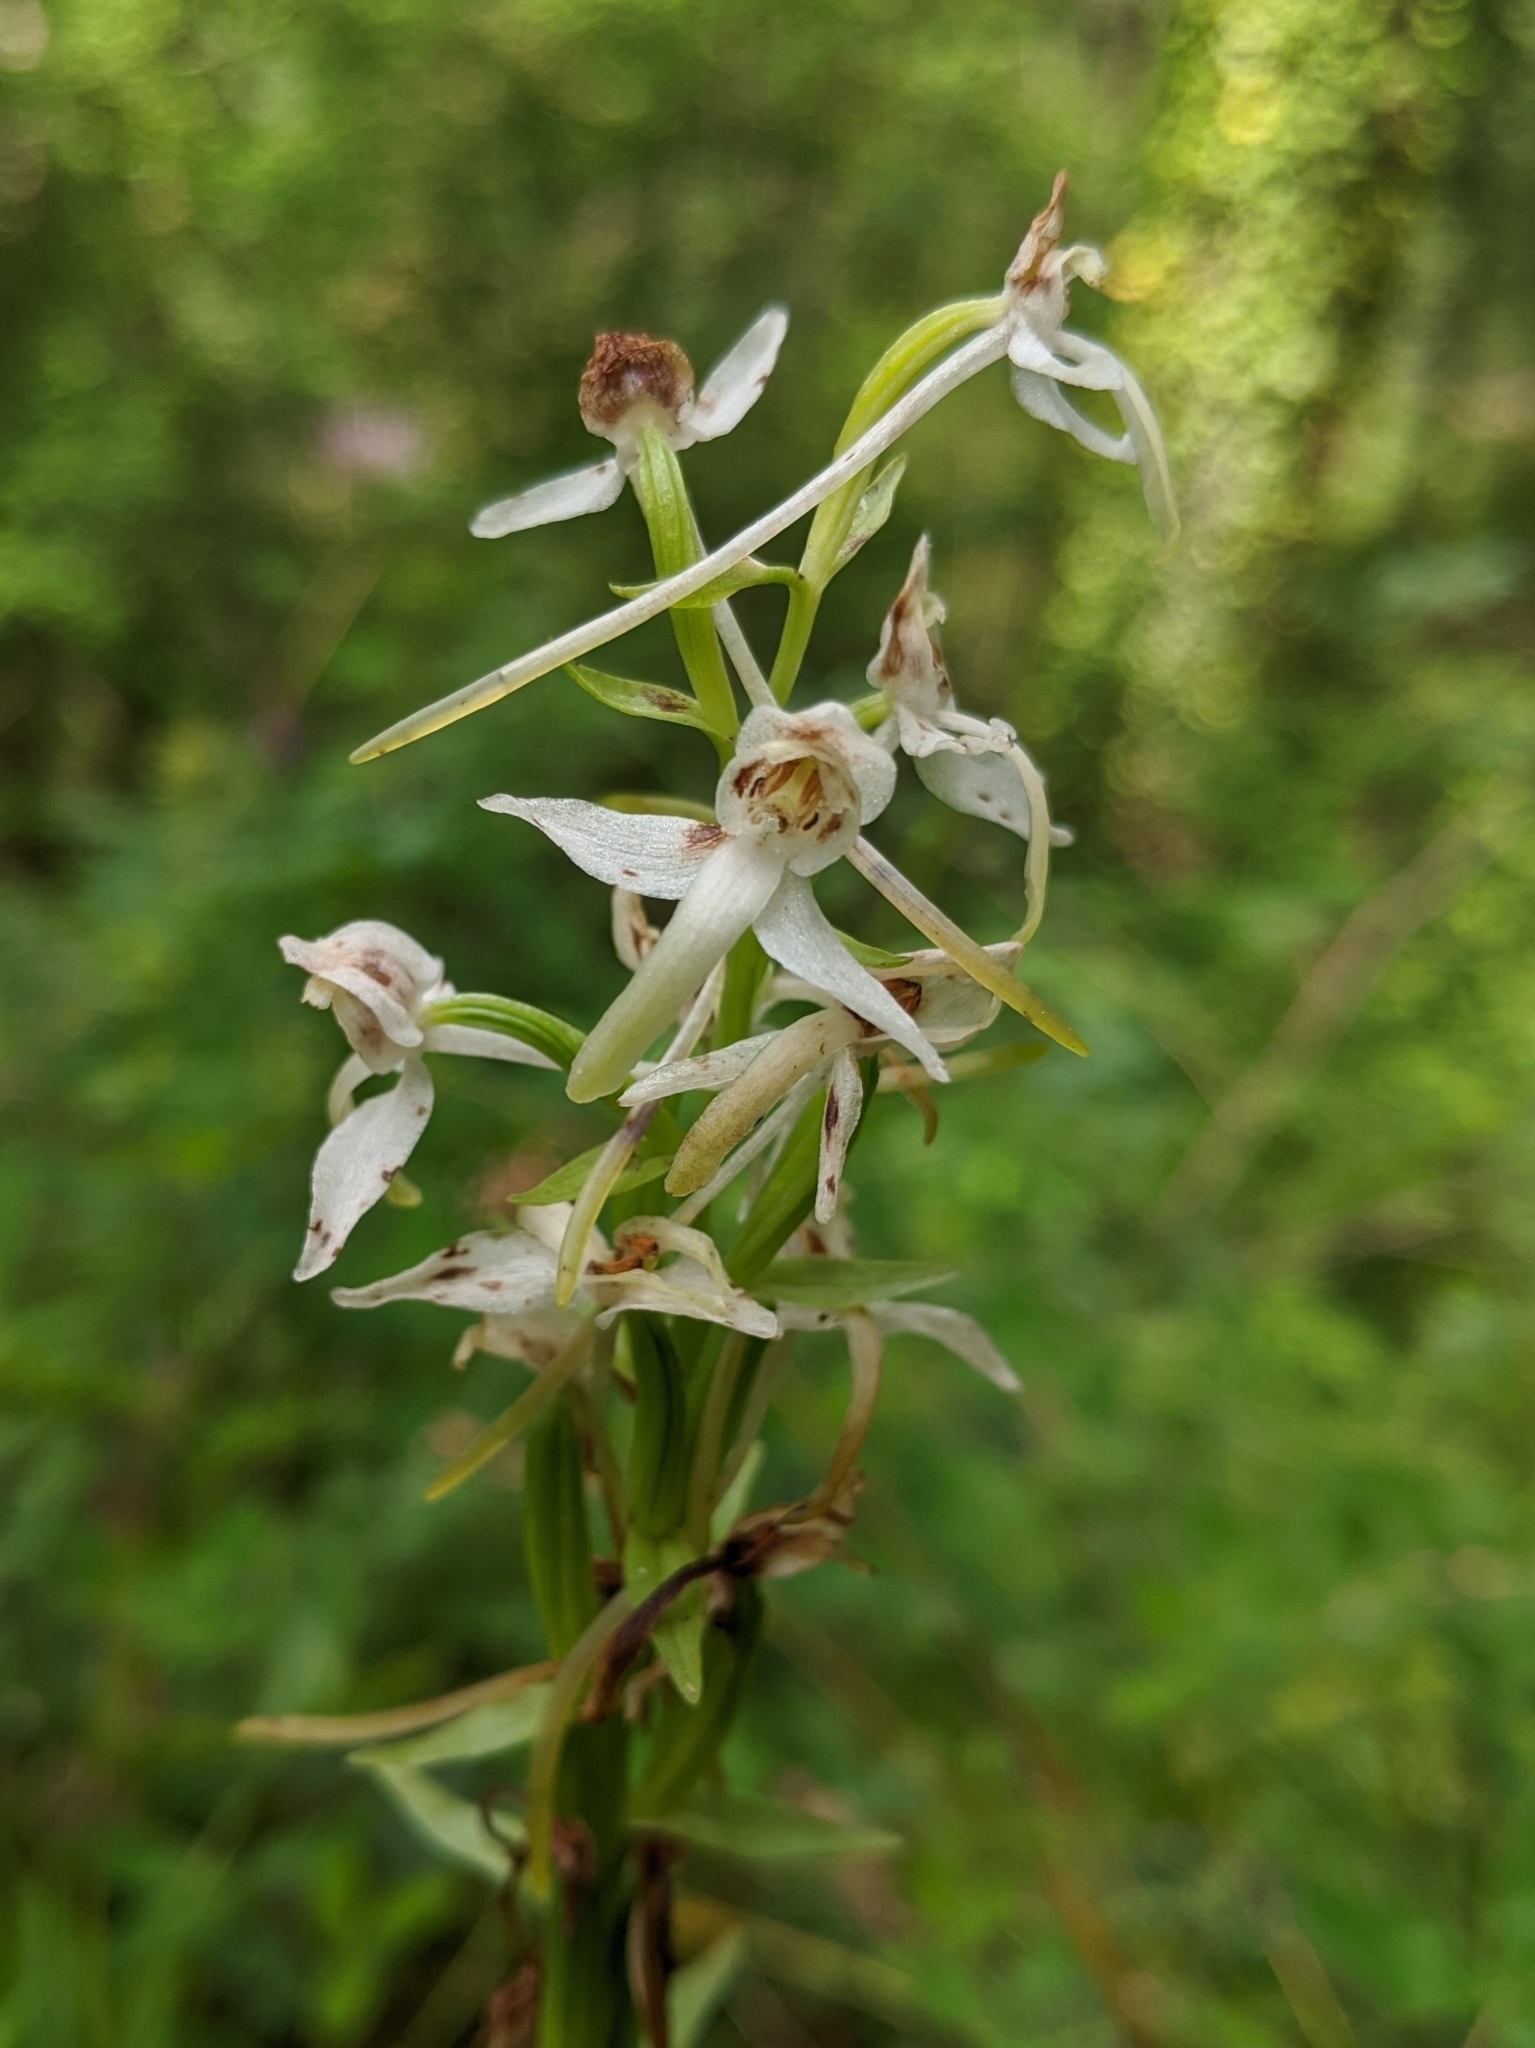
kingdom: Plantae
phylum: Tracheophyta
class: Liliopsida
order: Asparagales
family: Orchidaceae
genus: Platanthera
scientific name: Platanthera bifolia
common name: Lesser butterfly-orchid
